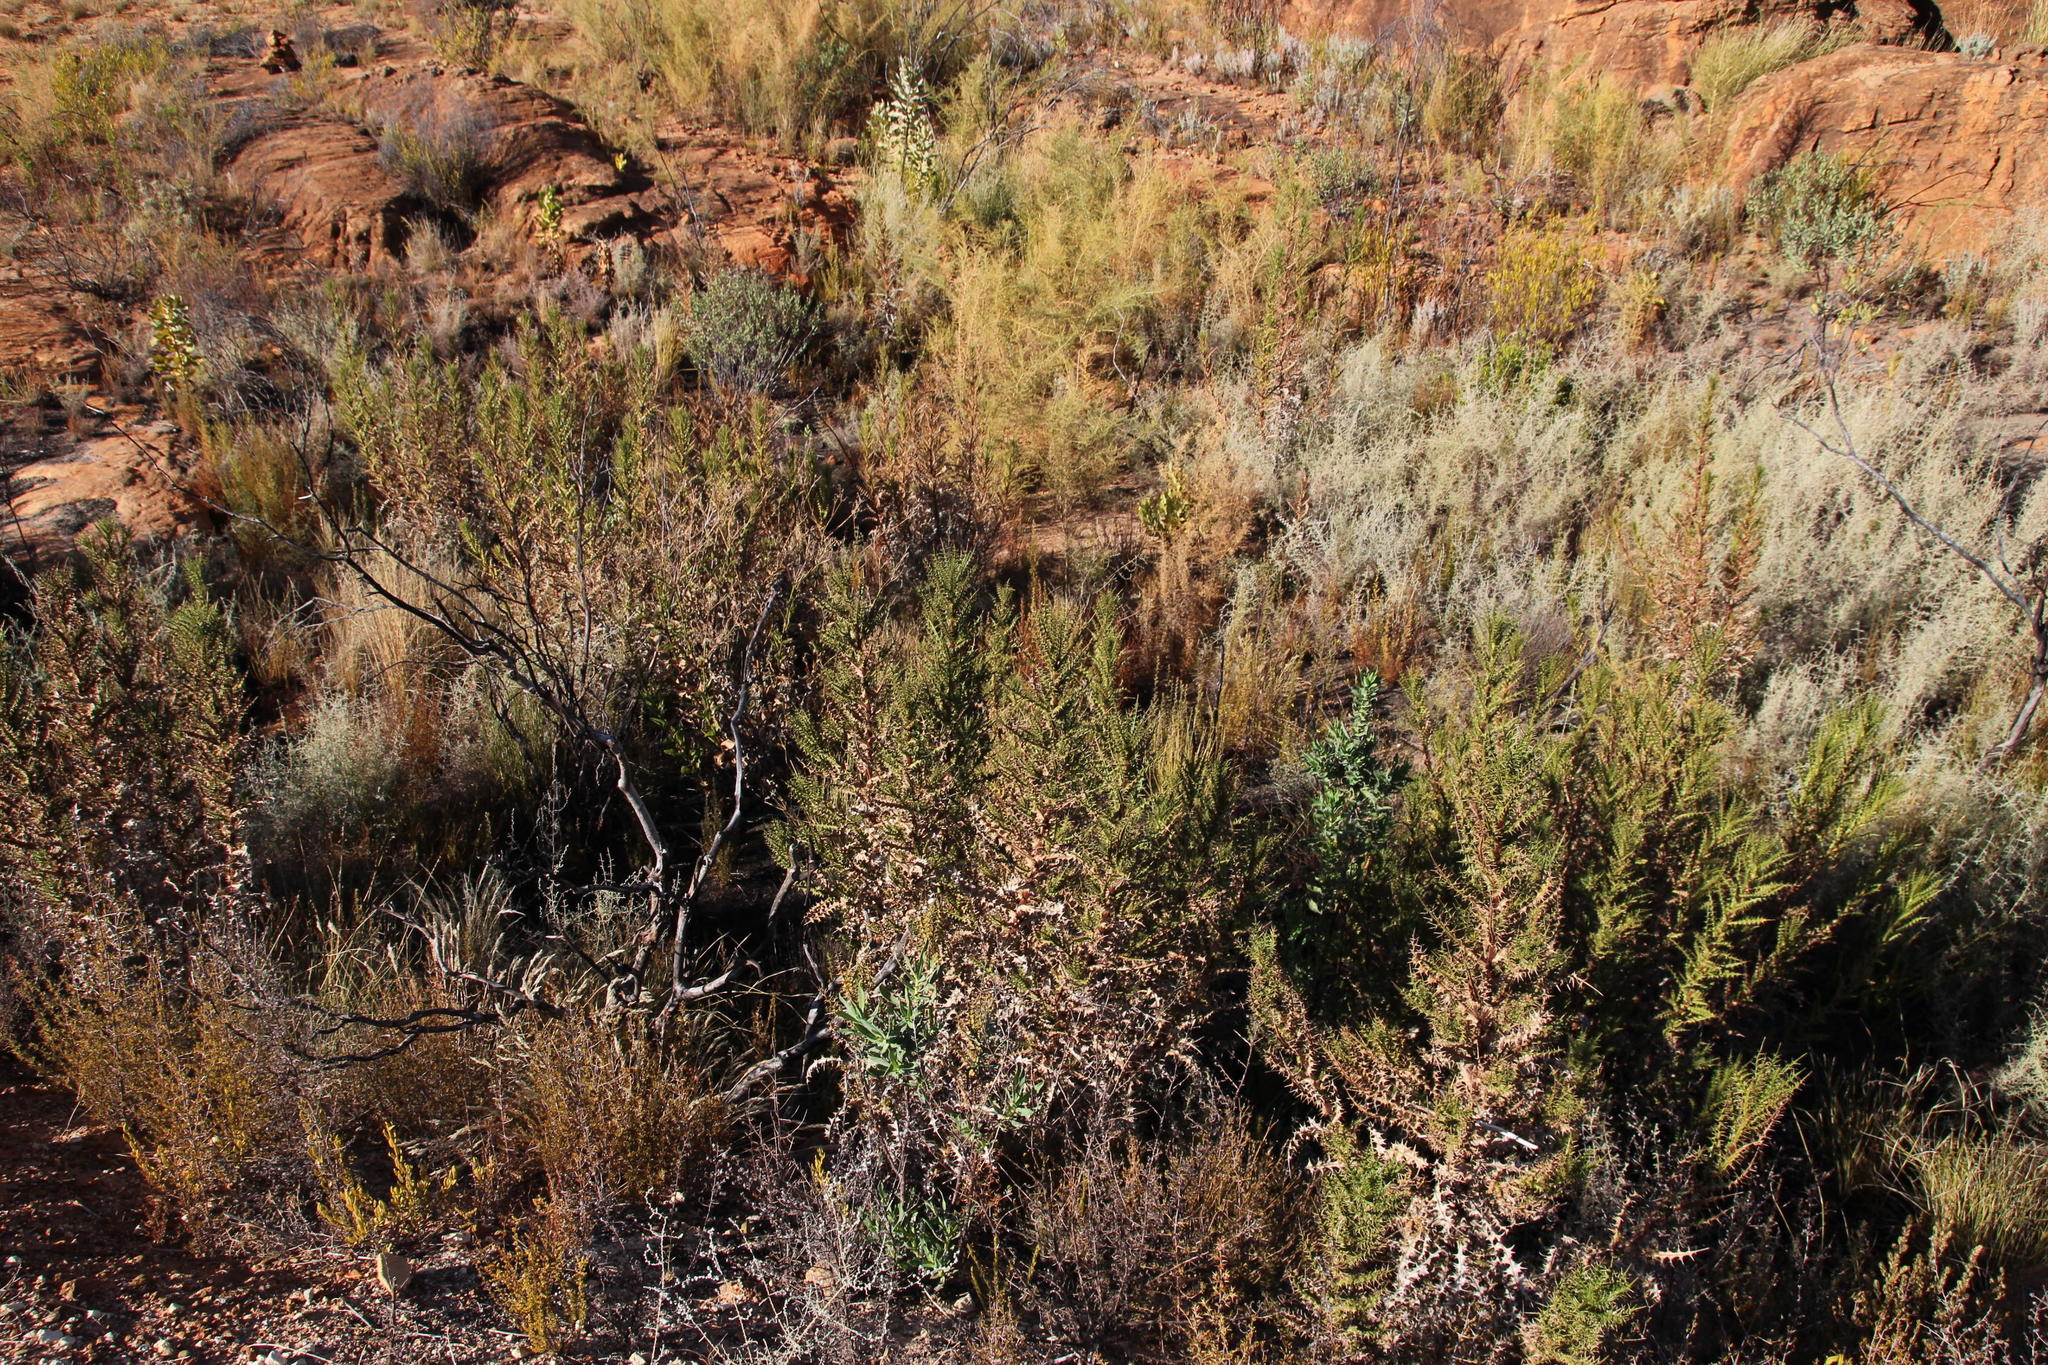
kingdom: Plantae
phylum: Tracheophyta
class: Magnoliopsida
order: Asterales
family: Asteraceae
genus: Berkheya
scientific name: Berkheya onobromoides
